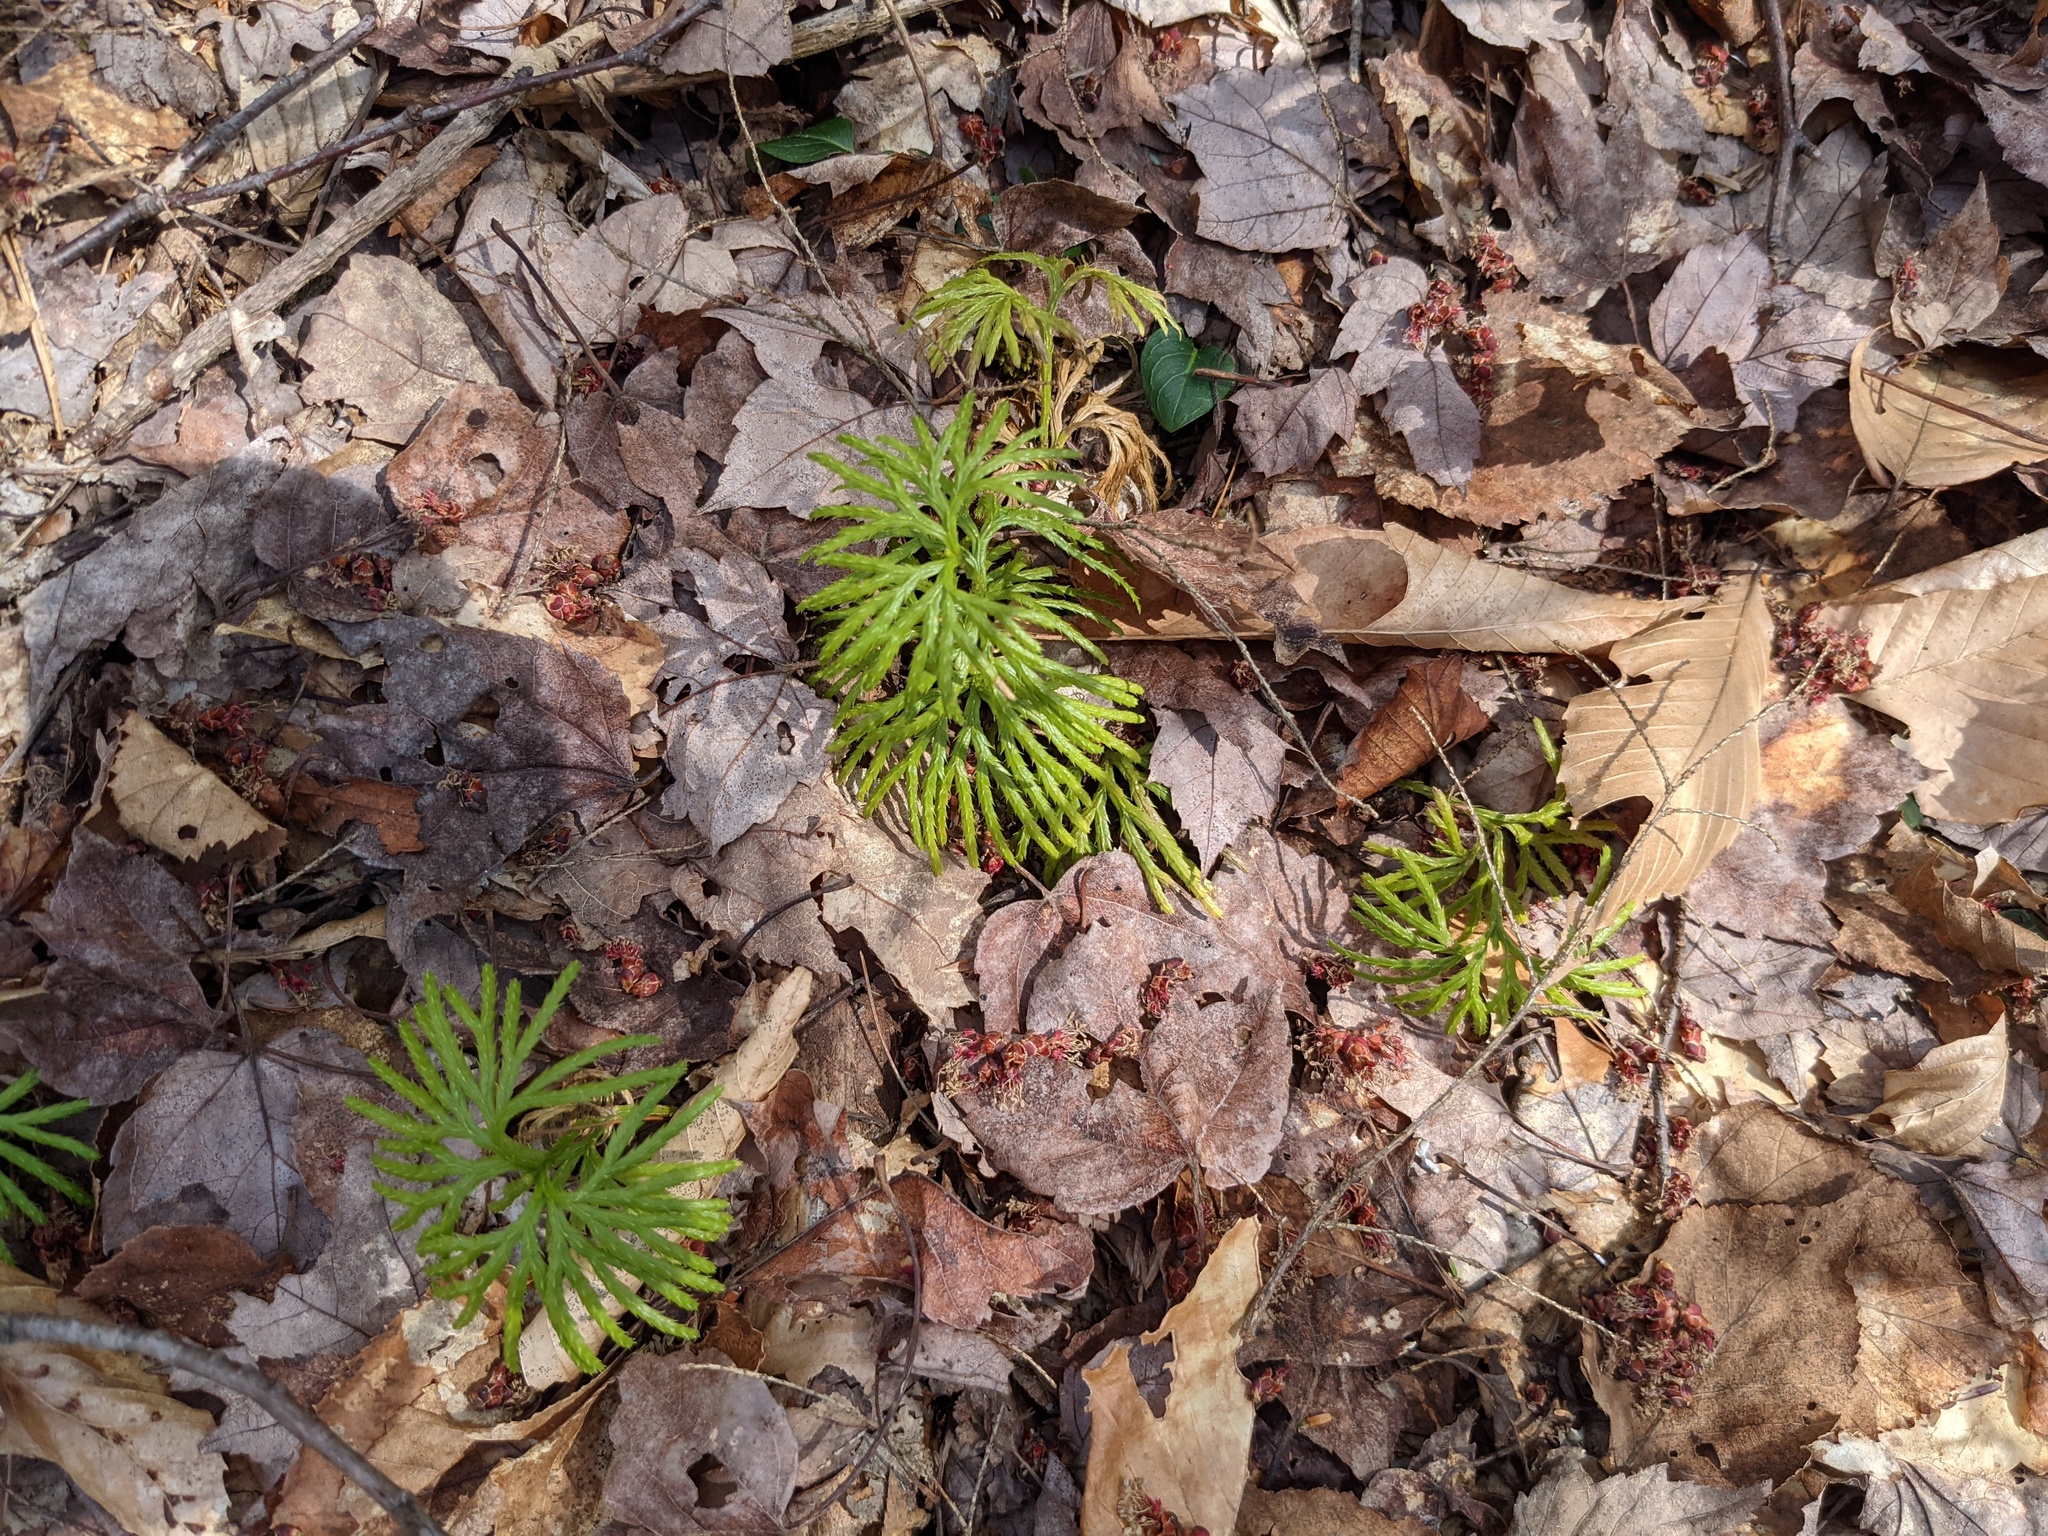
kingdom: Plantae
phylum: Tracheophyta
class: Lycopodiopsida
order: Lycopodiales
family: Lycopodiaceae
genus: Diphasiastrum
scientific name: Diphasiastrum digitatum
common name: Southern running-pine
